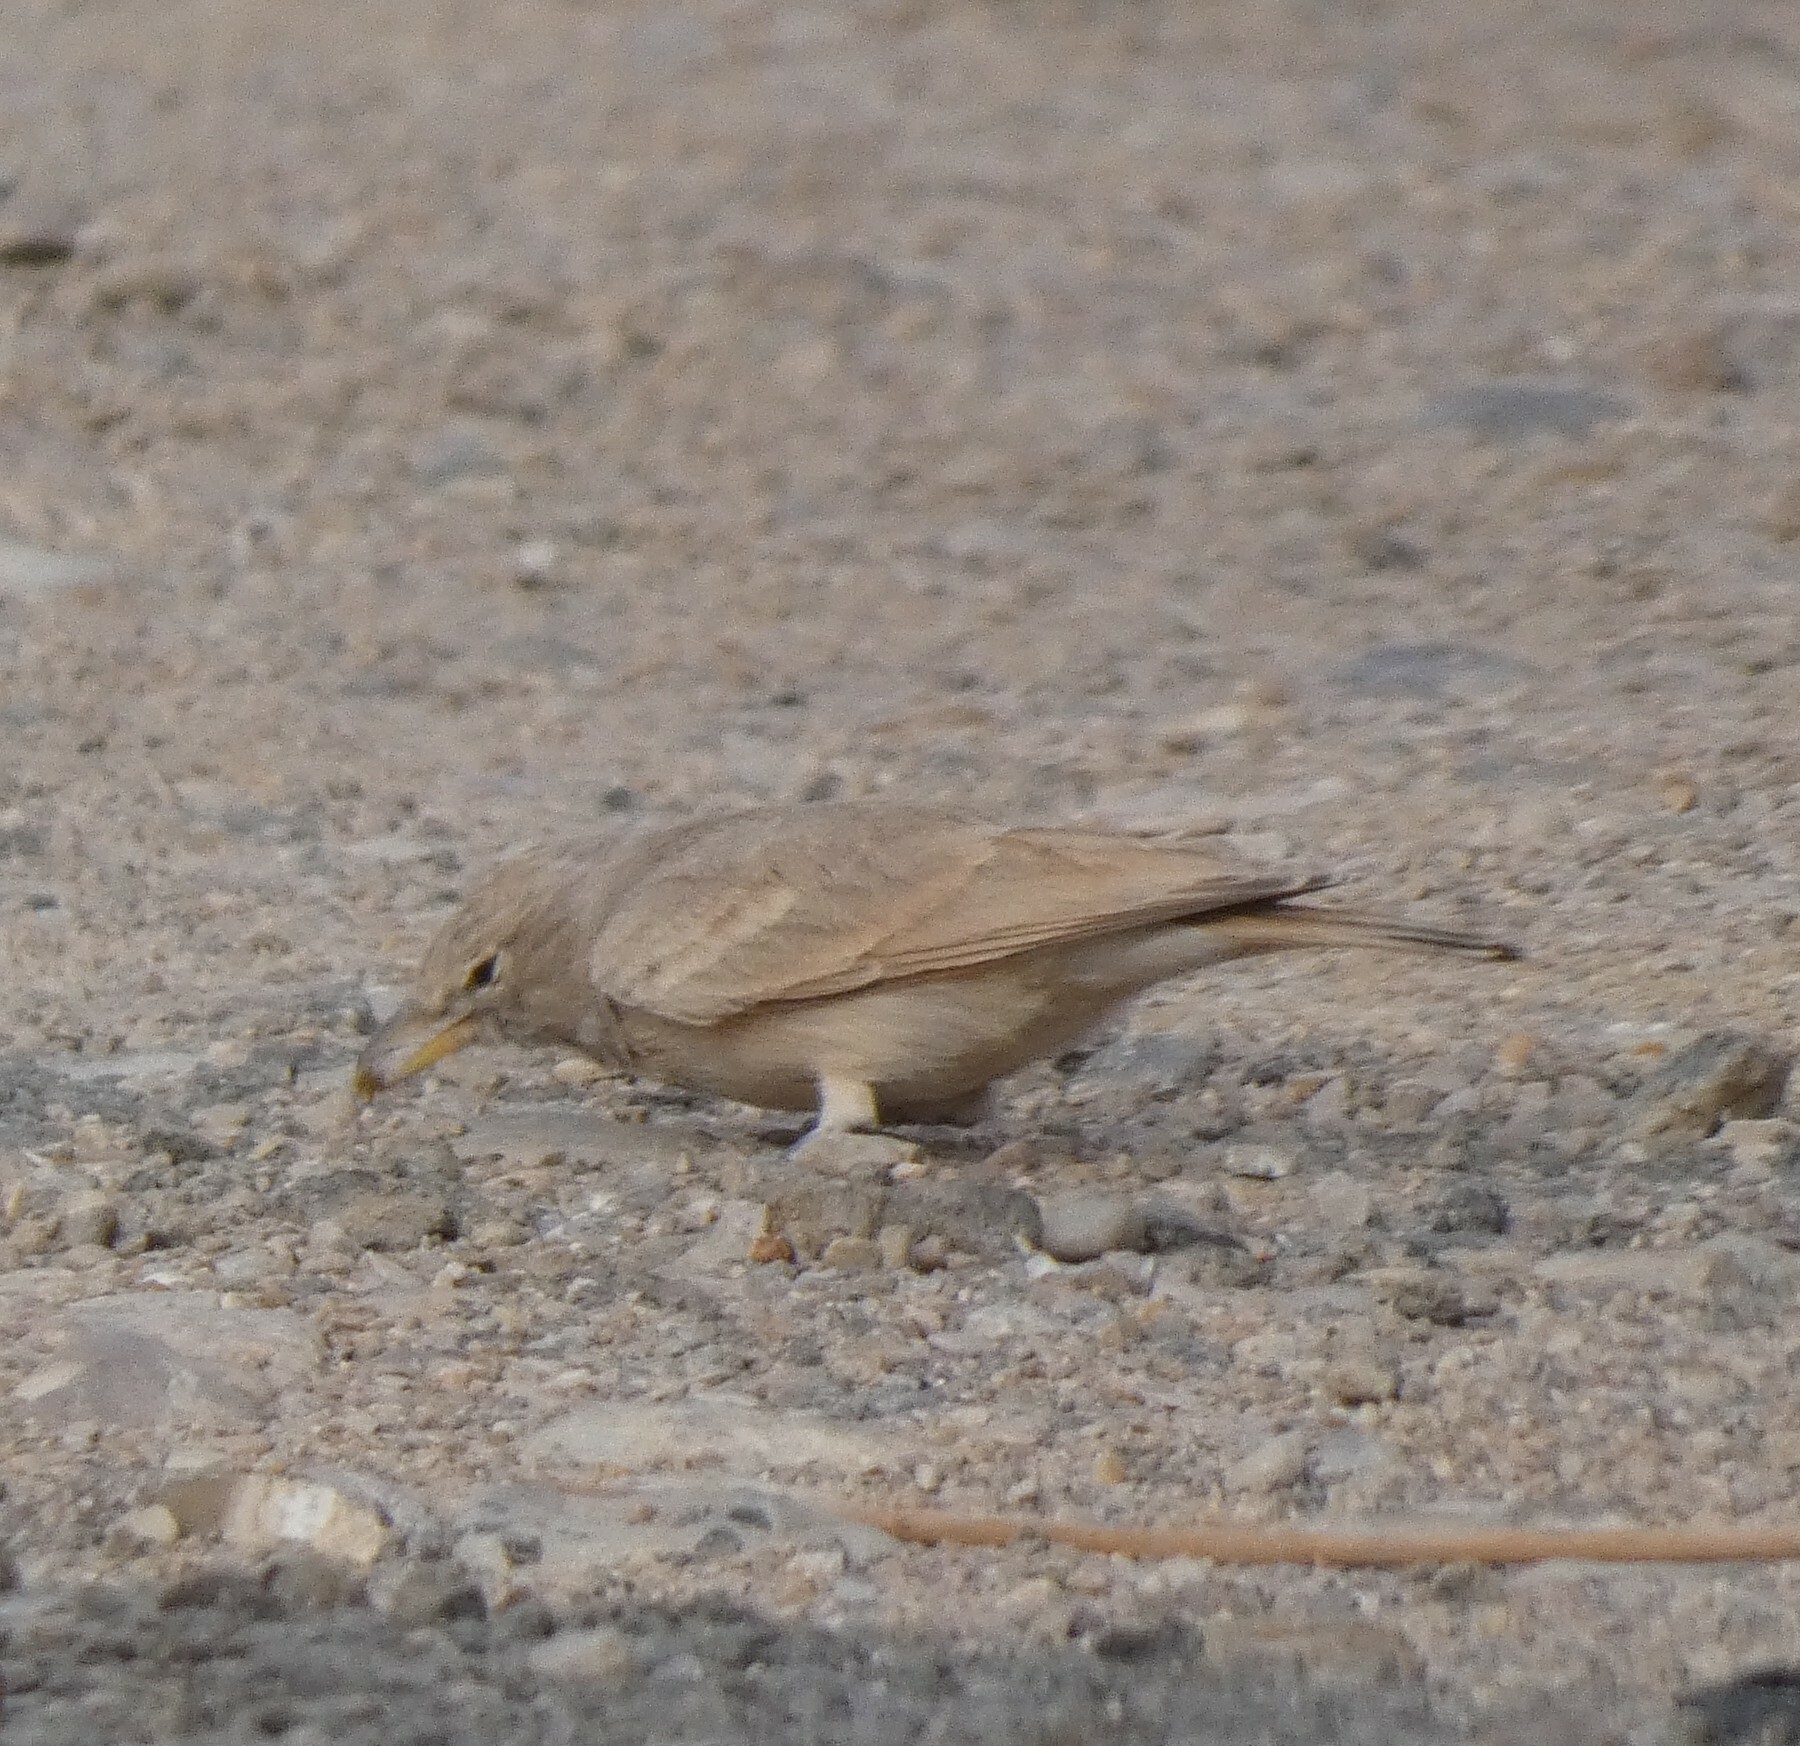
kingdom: Animalia
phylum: Chordata
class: Aves
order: Passeriformes
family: Alaudidae
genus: Ammomanes
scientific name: Ammomanes deserti
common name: Desert lark
